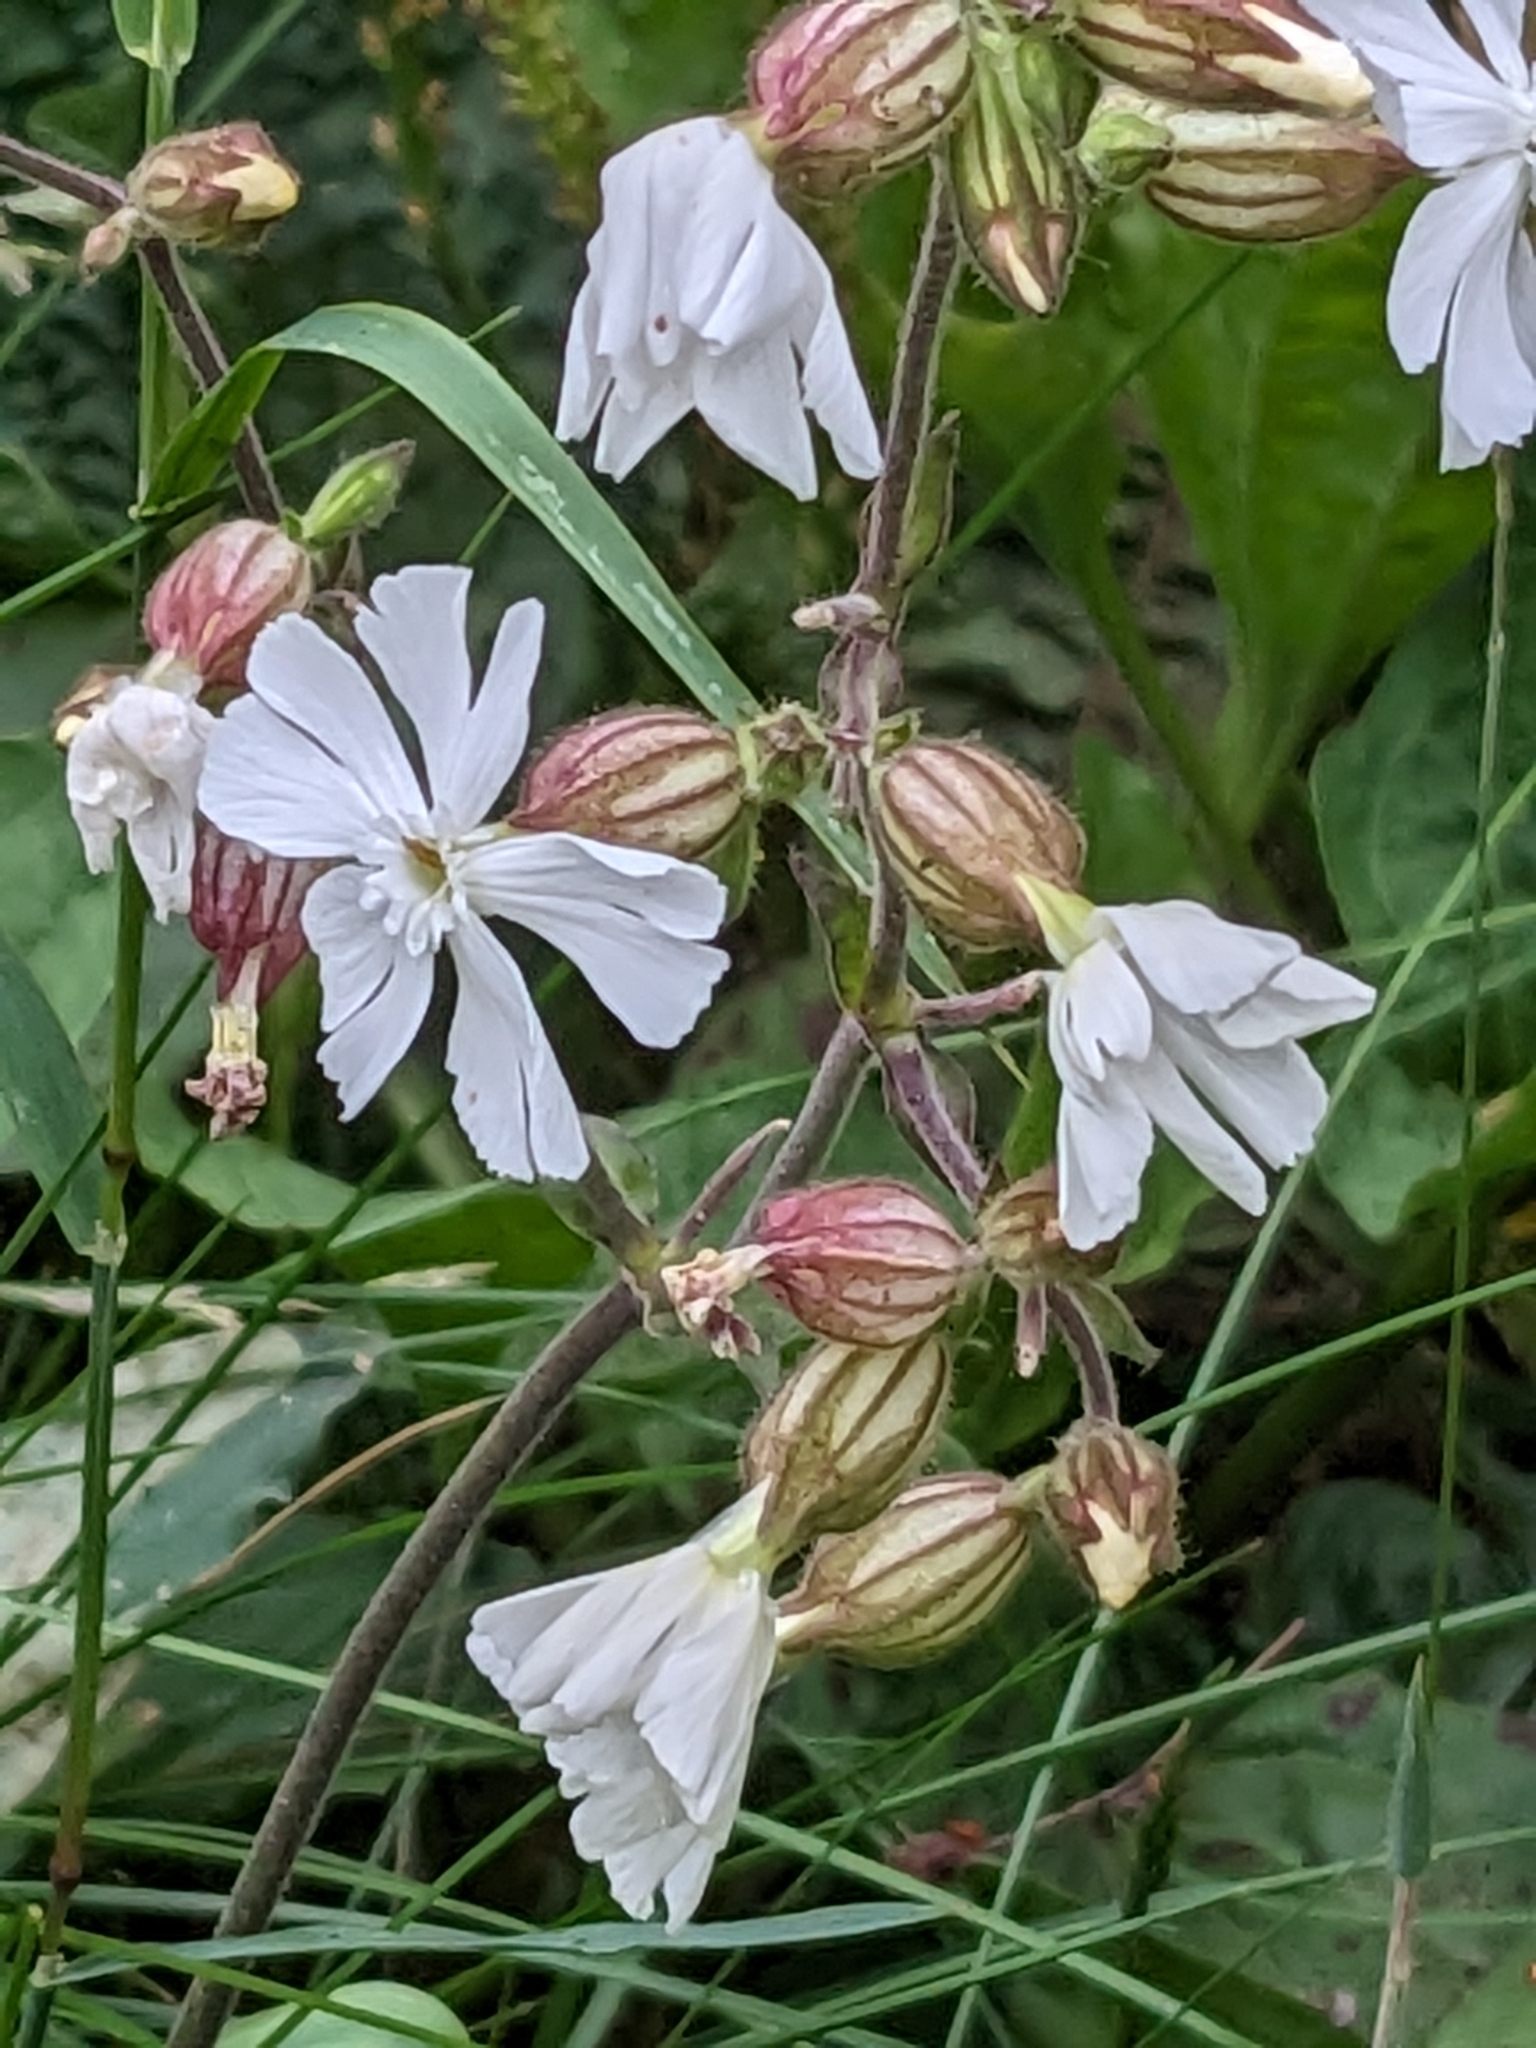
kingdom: Plantae
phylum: Tracheophyta
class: Magnoliopsida
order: Caryophyllales
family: Caryophyllaceae
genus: Silene
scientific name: Silene latifolia
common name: White campion
